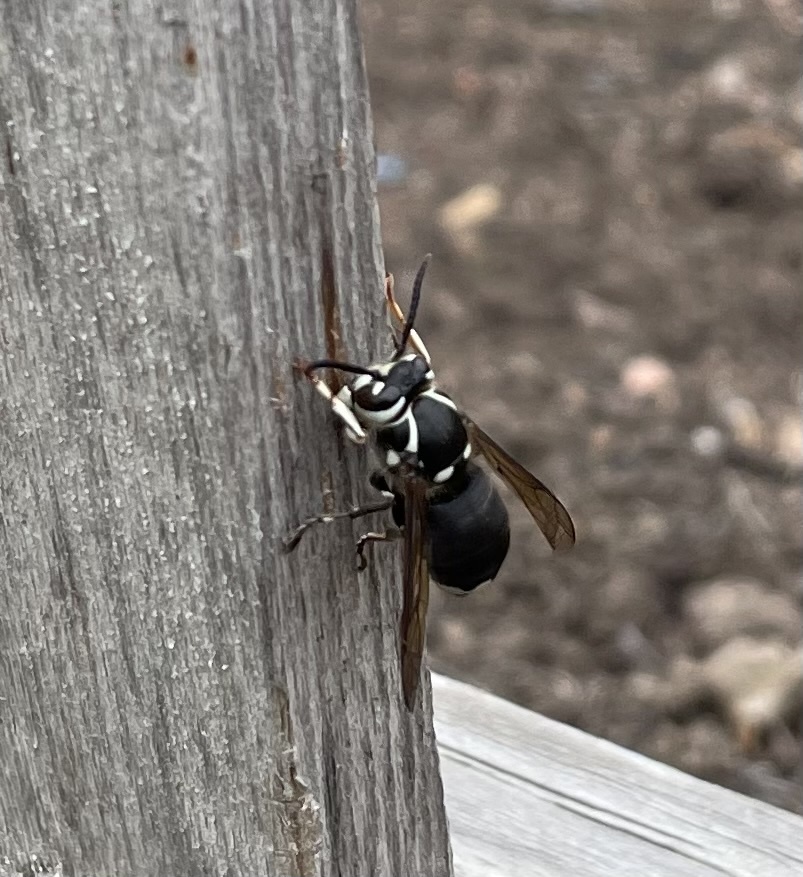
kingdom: Animalia
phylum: Arthropoda
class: Insecta
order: Hymenoptera
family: Vespidae
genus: Dolichovespula
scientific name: Dolichovespula maculata
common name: Bald-faced hornet
